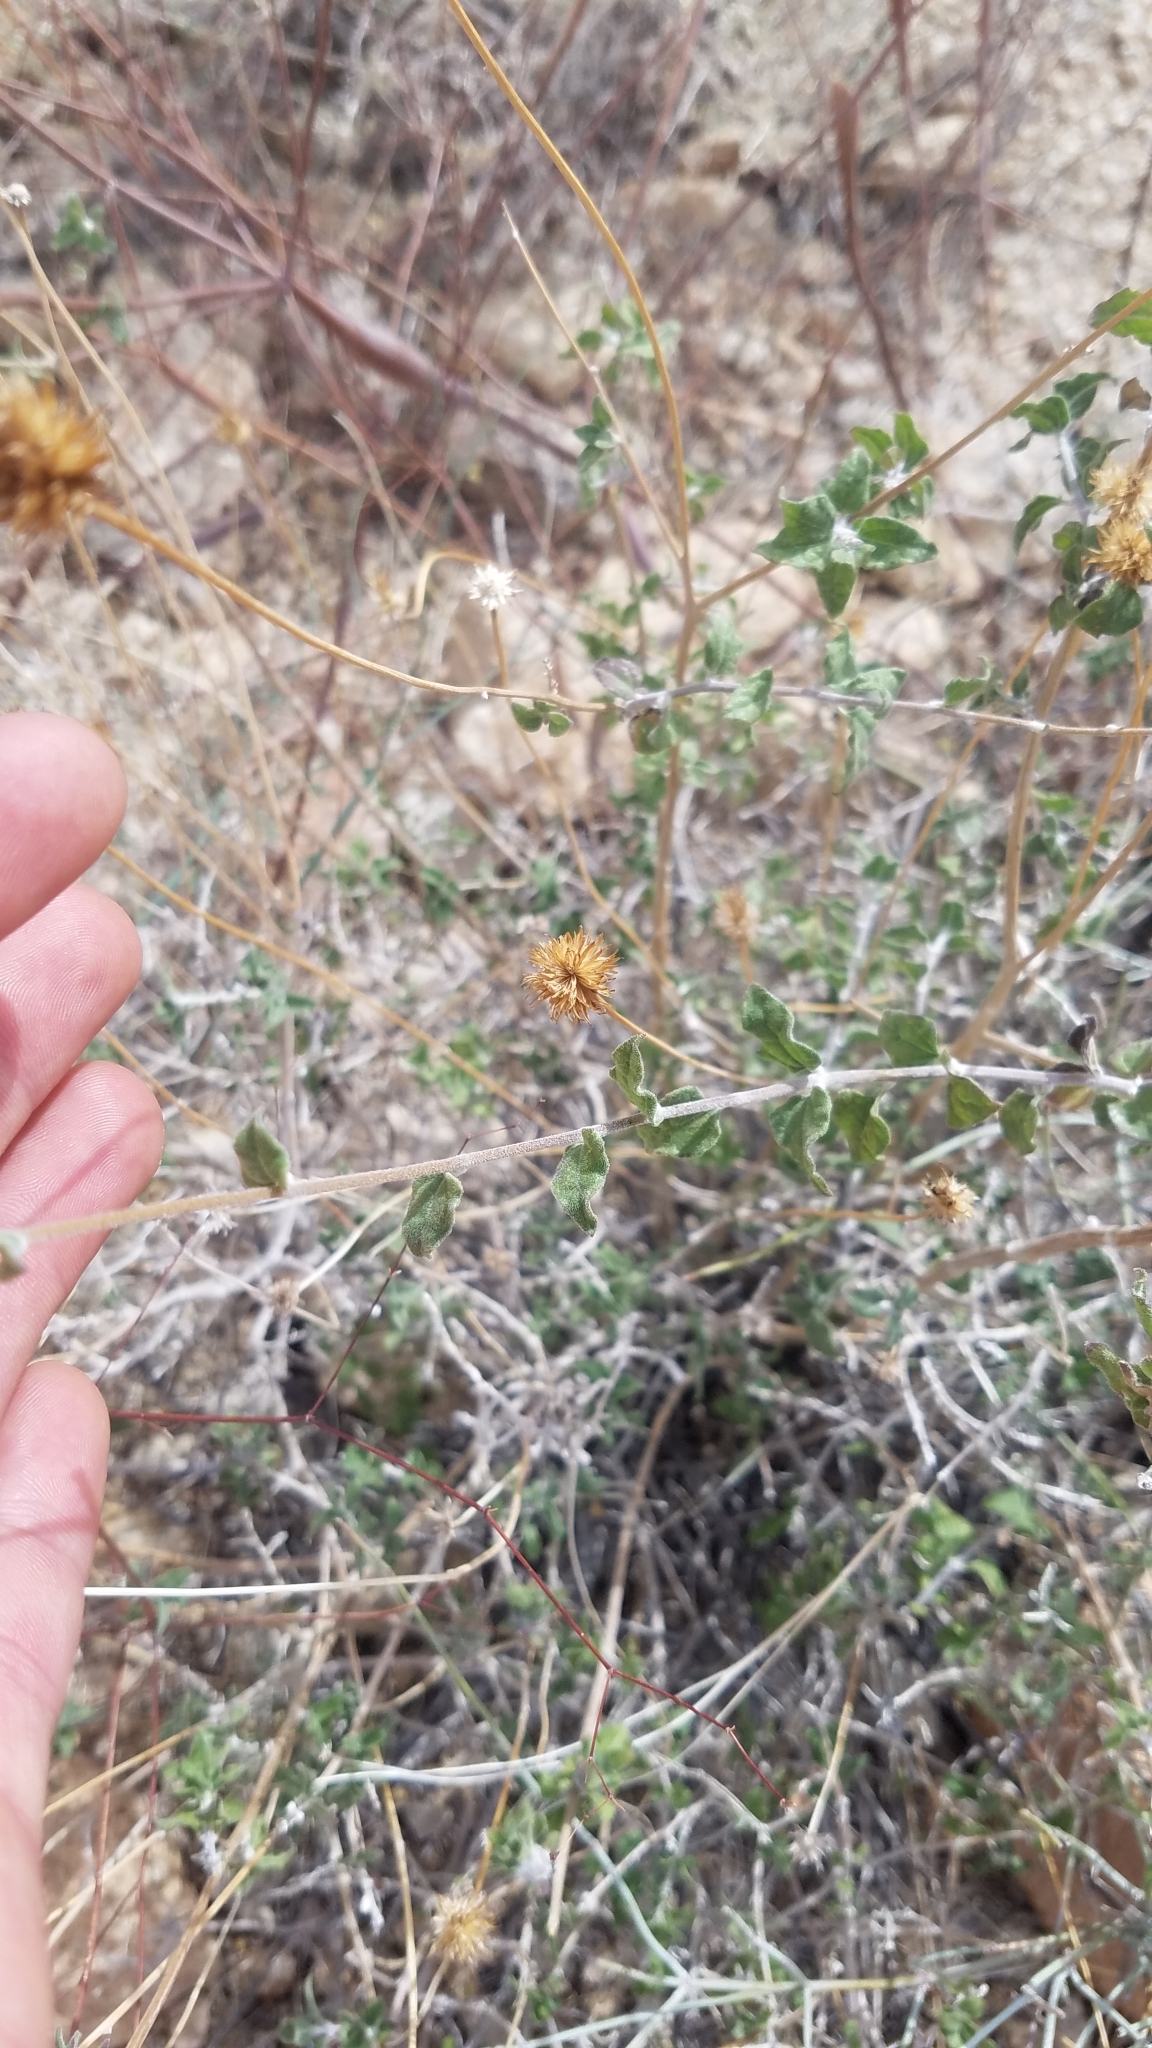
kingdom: Plantae
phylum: Tracheophyta
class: Magnoliopsida
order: Asterales
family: Asteraceae
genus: Bahiopsis
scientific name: Bahiopsis parishii
